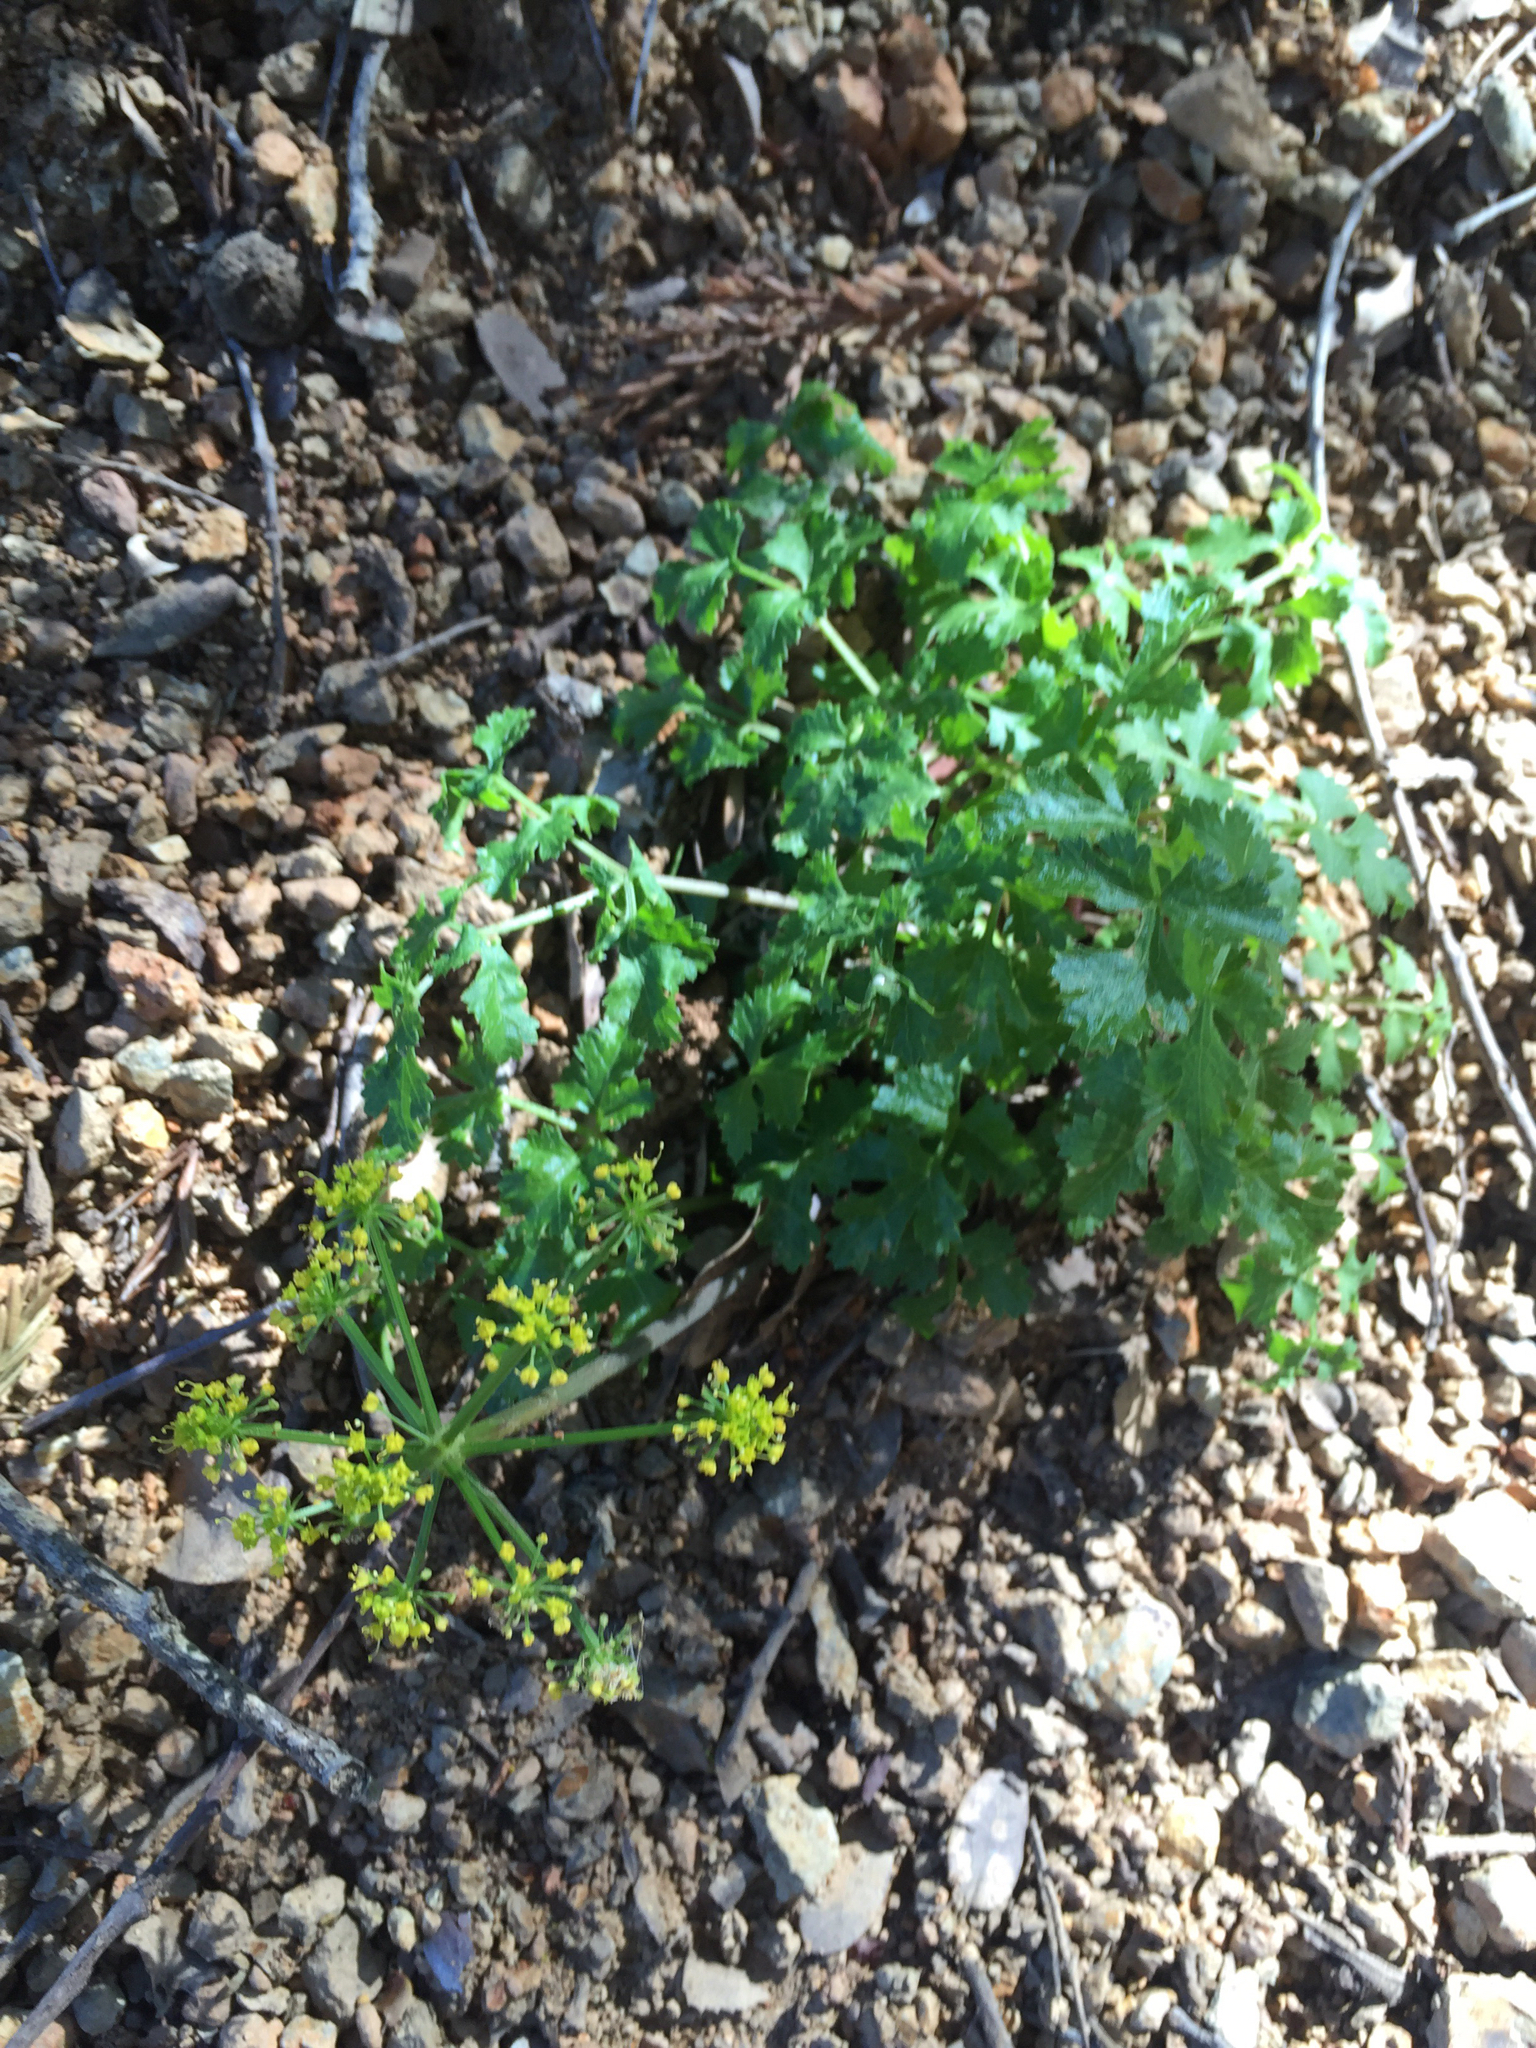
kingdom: Plantae
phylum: Tracheophyta
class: Magnoliopsida
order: Apiales
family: Apiaceae
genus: Tauschia
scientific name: Tauschia kelloggii
